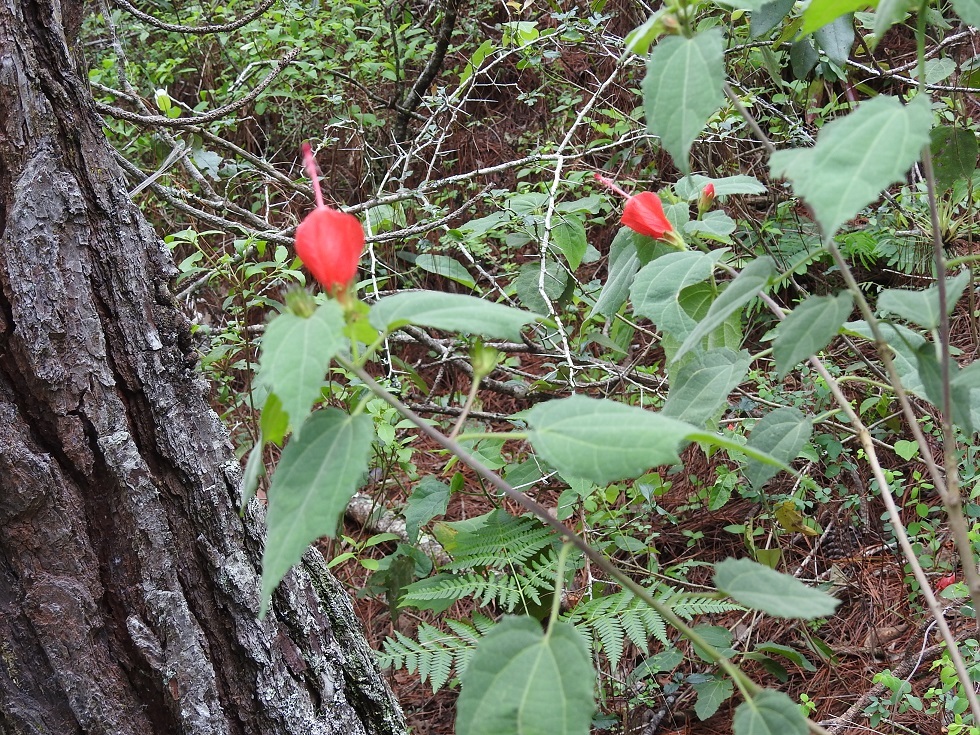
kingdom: Plantae
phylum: Tracheophyta
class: Magnoliopsida
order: Malvales
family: Malvaceae
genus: Malvaviscus
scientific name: Malvaviscus arboreus
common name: Wax mallow
